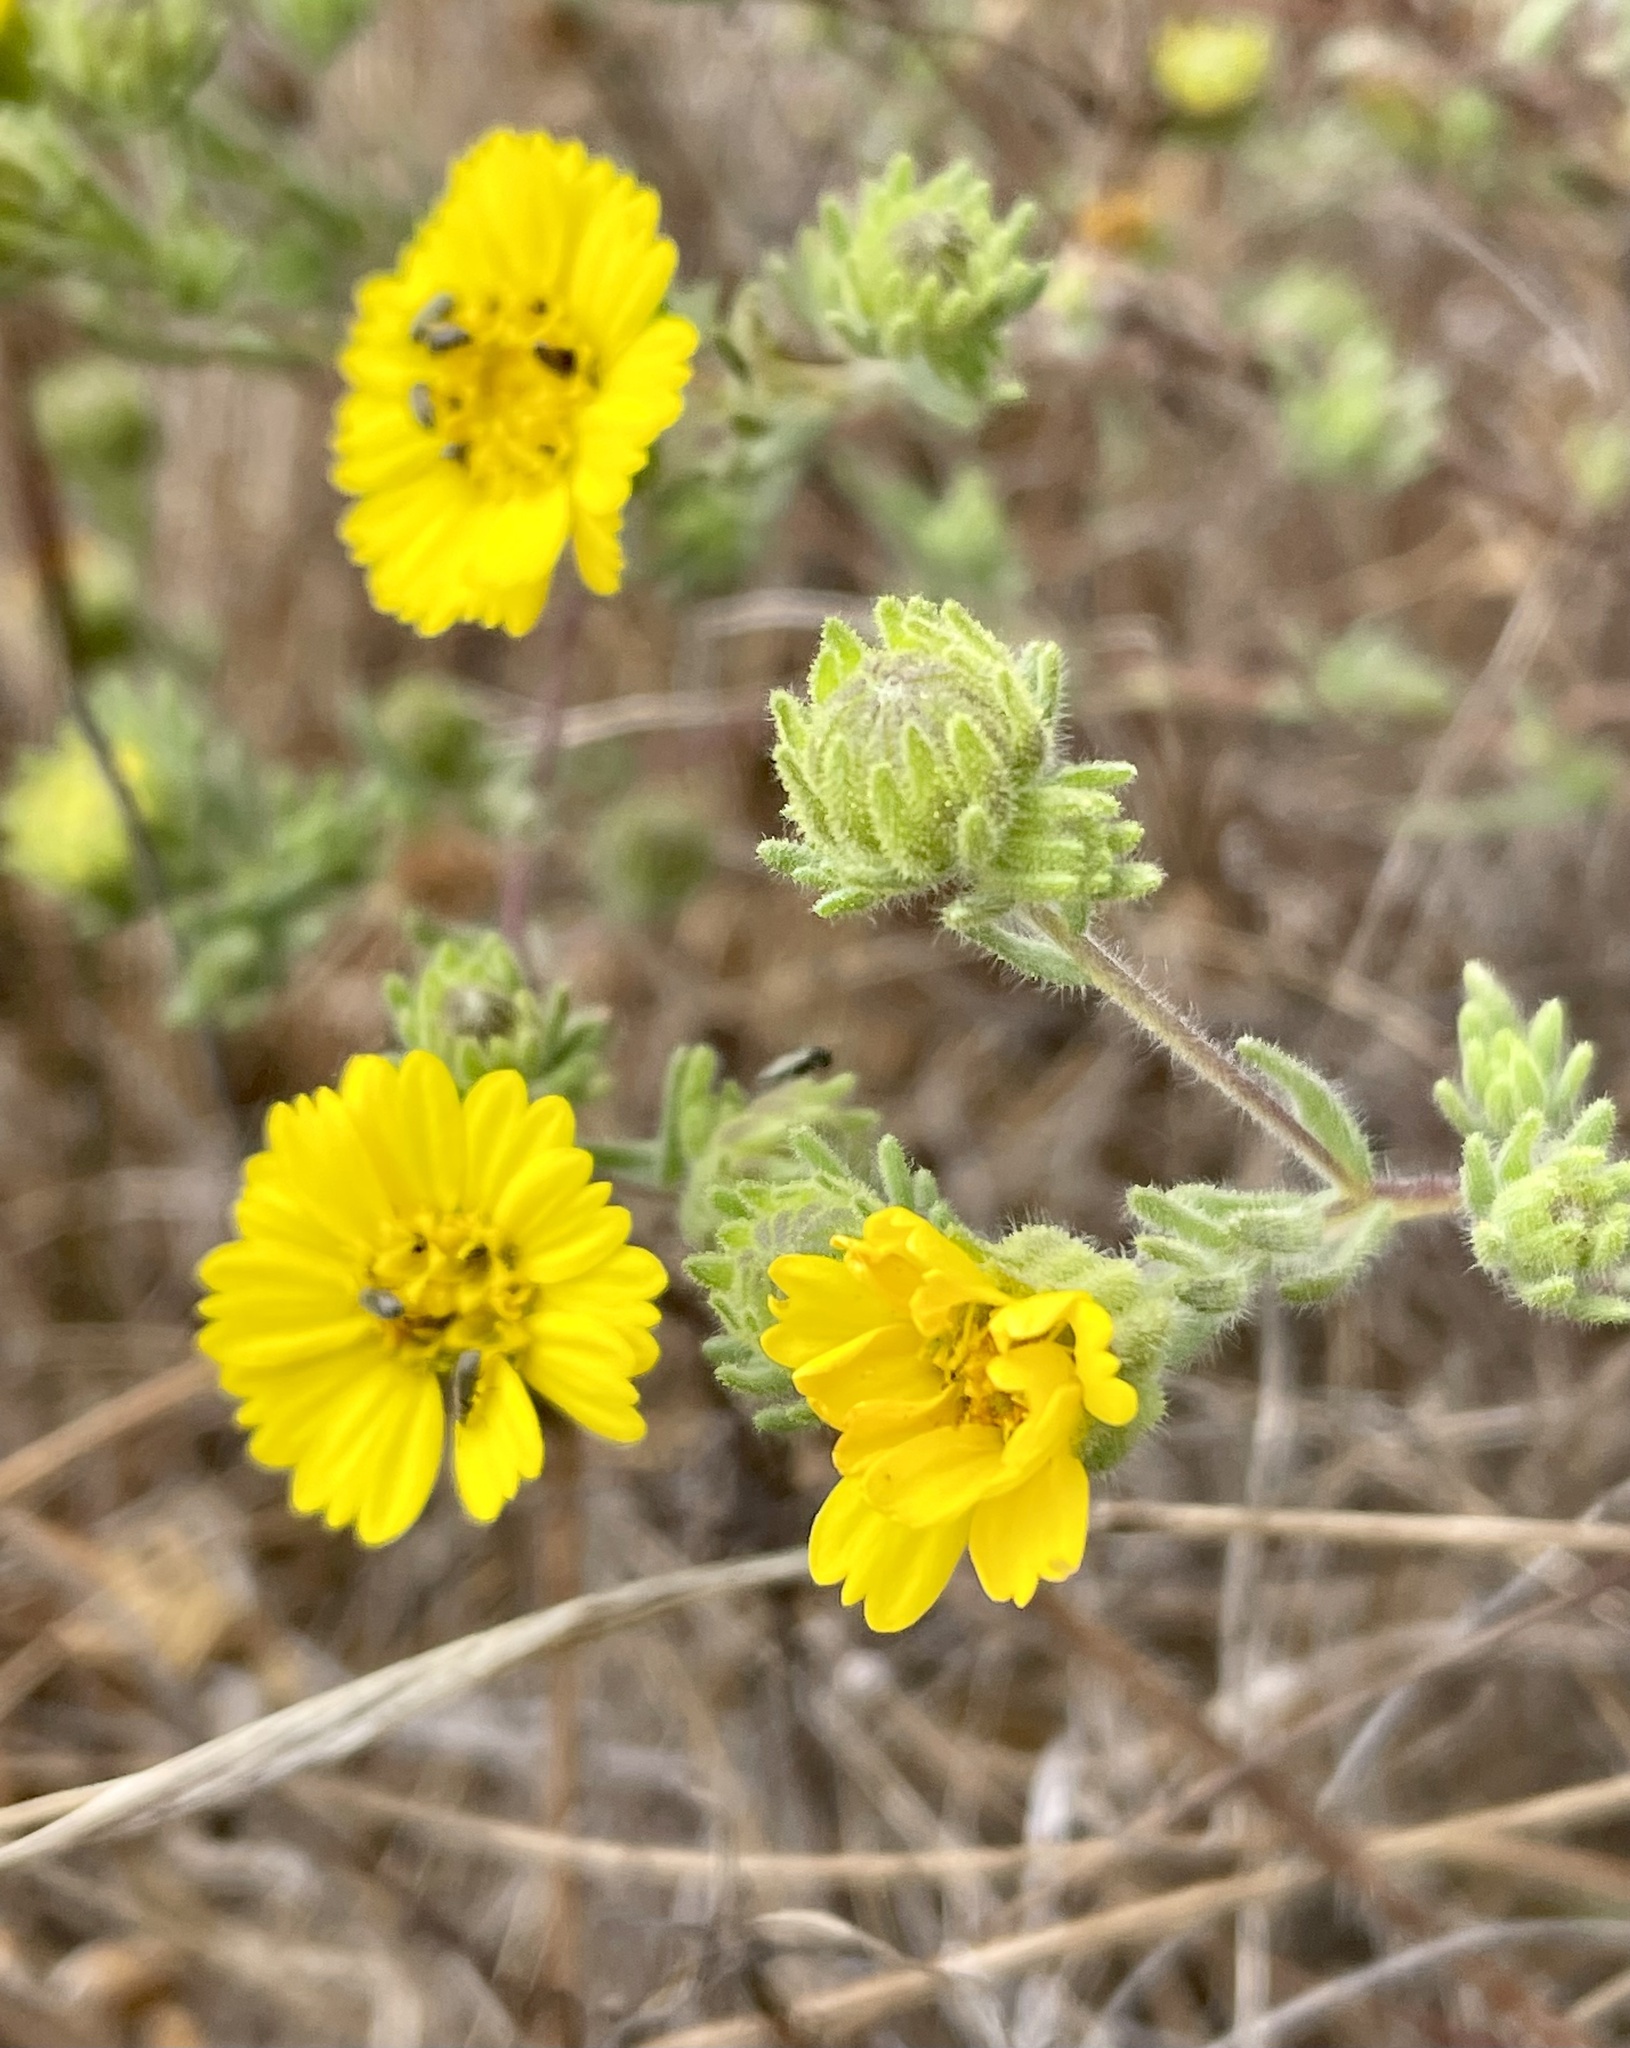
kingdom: Plantae
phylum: Tracheophyta
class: Magnoliopsida
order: Asterales
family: Asteraceae
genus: Deinandra
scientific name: Deinandra corymbosa
